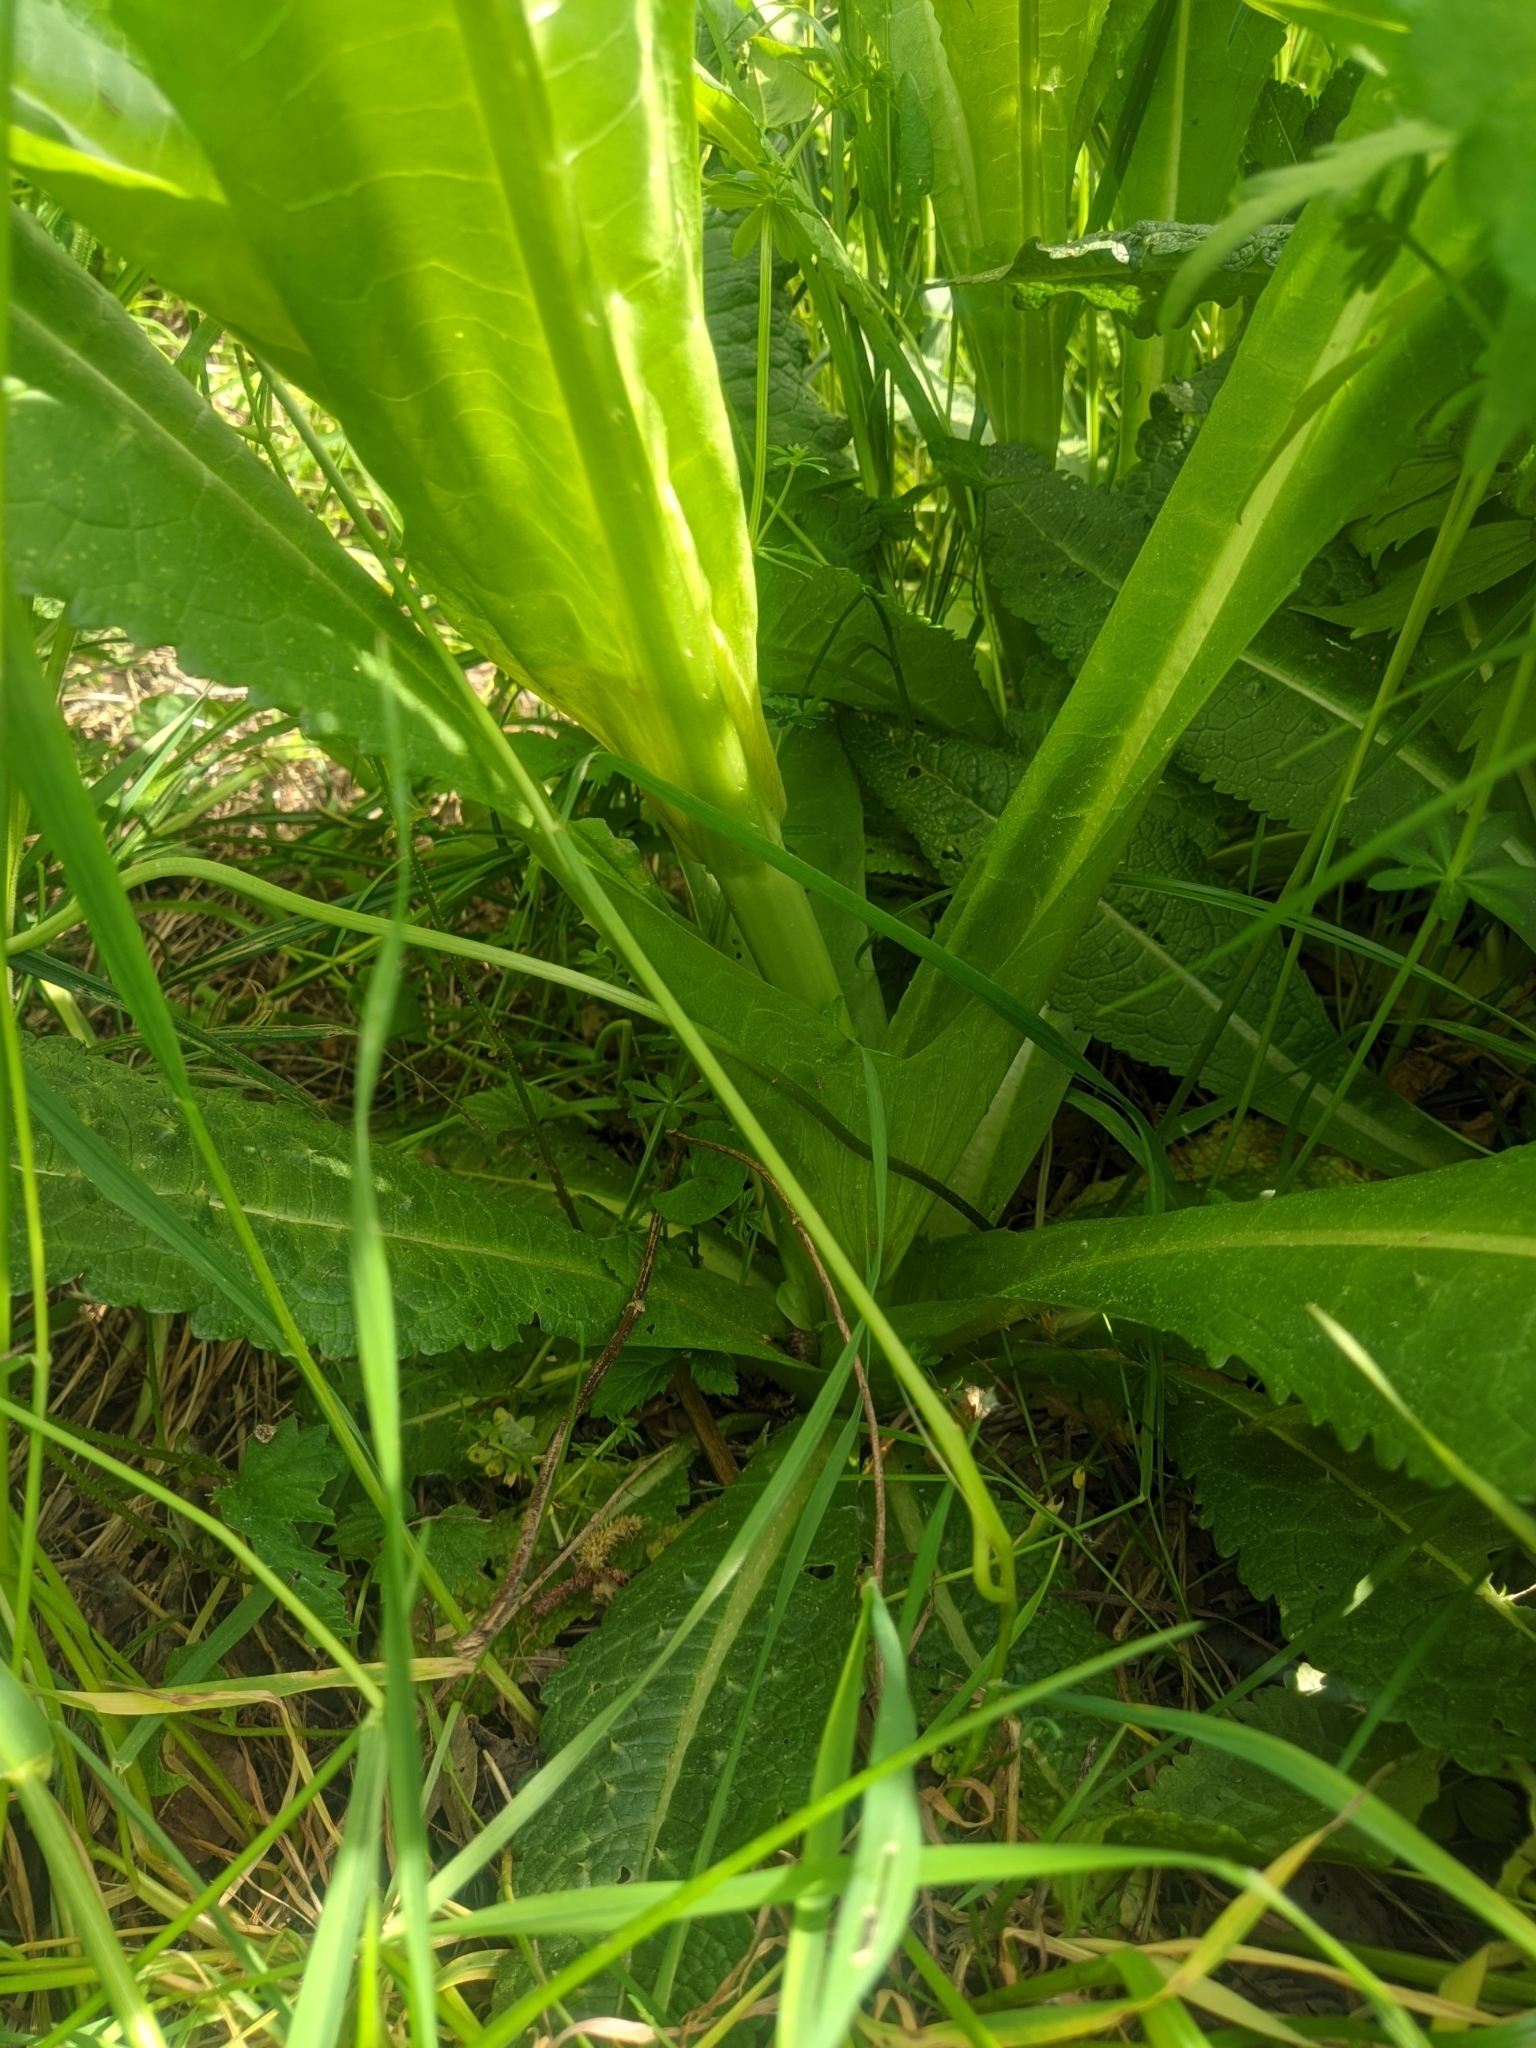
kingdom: Plantae
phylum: Tracheophyta
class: Magnoliopsida
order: Dipsacales
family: Caprifoliaceae
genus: Dipsacus
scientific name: Dipsacus fullonum
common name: Teasel
